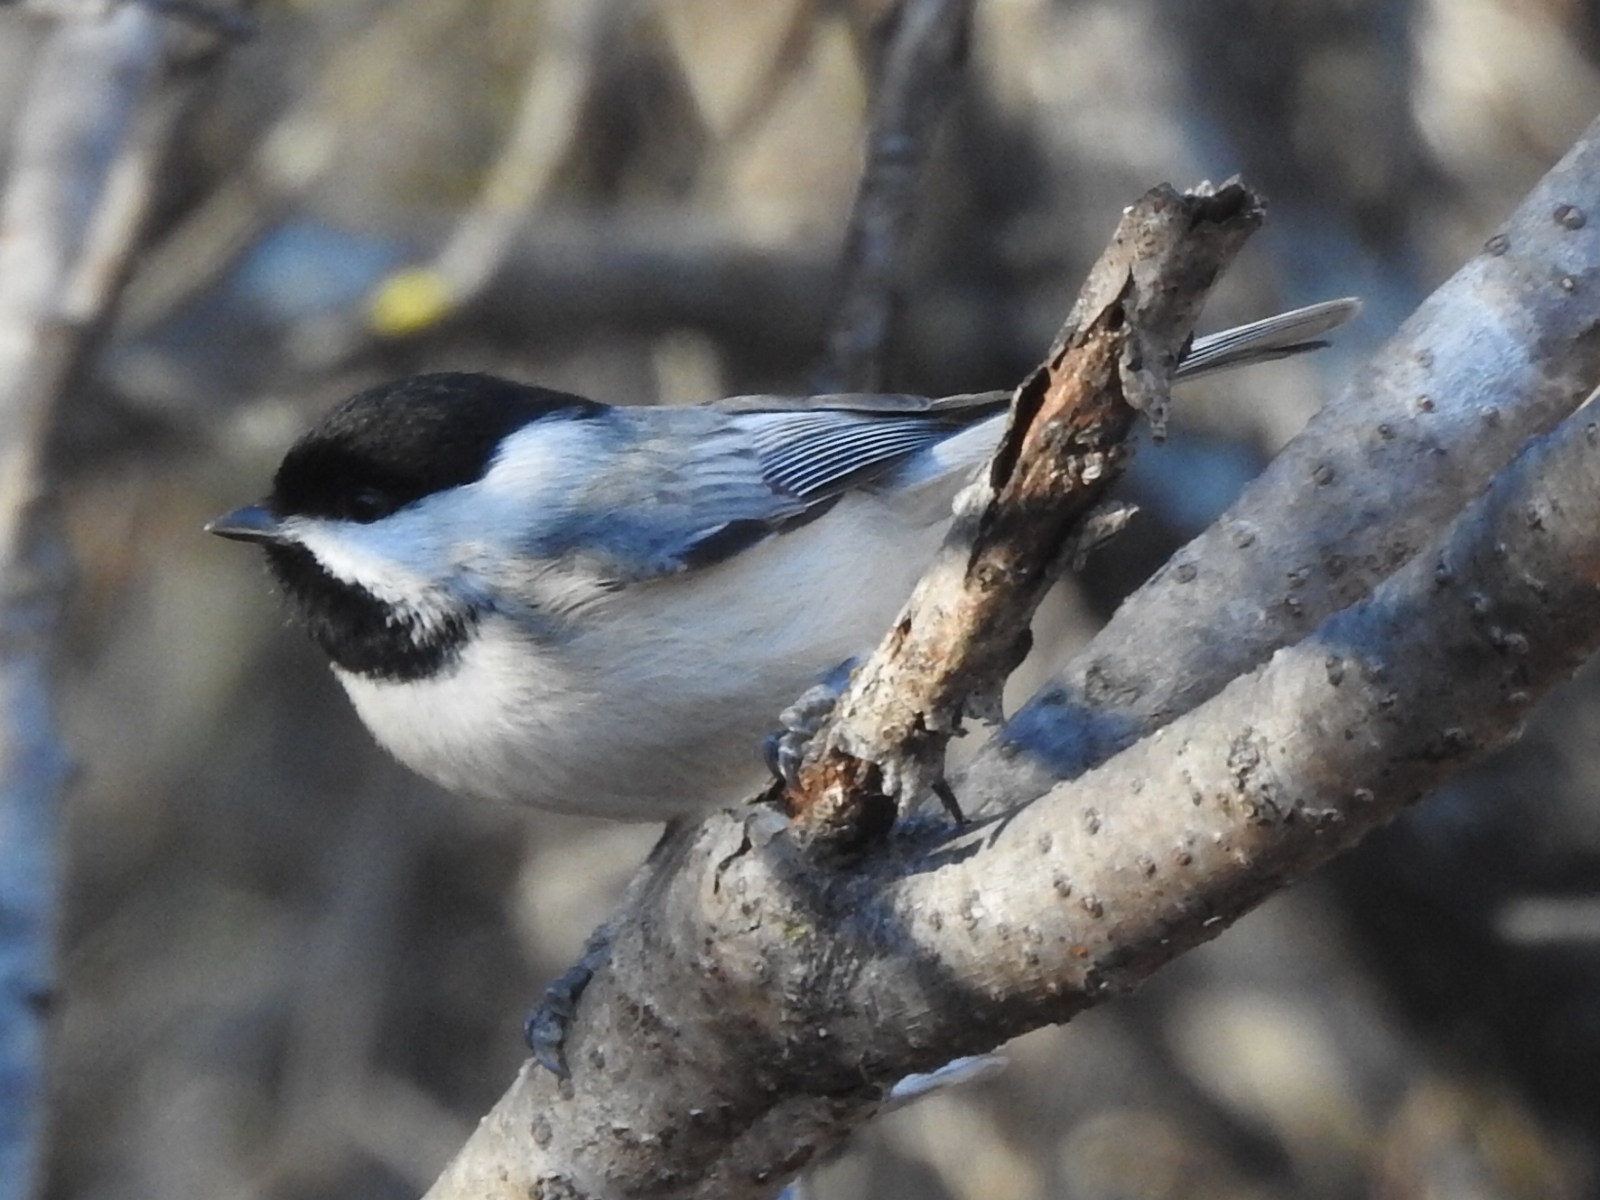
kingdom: Animalia
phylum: Chordata
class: Aves
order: Passeriformes
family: Paridae
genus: Poecile
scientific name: Poecile carolinensis
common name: Carolina chickadee
